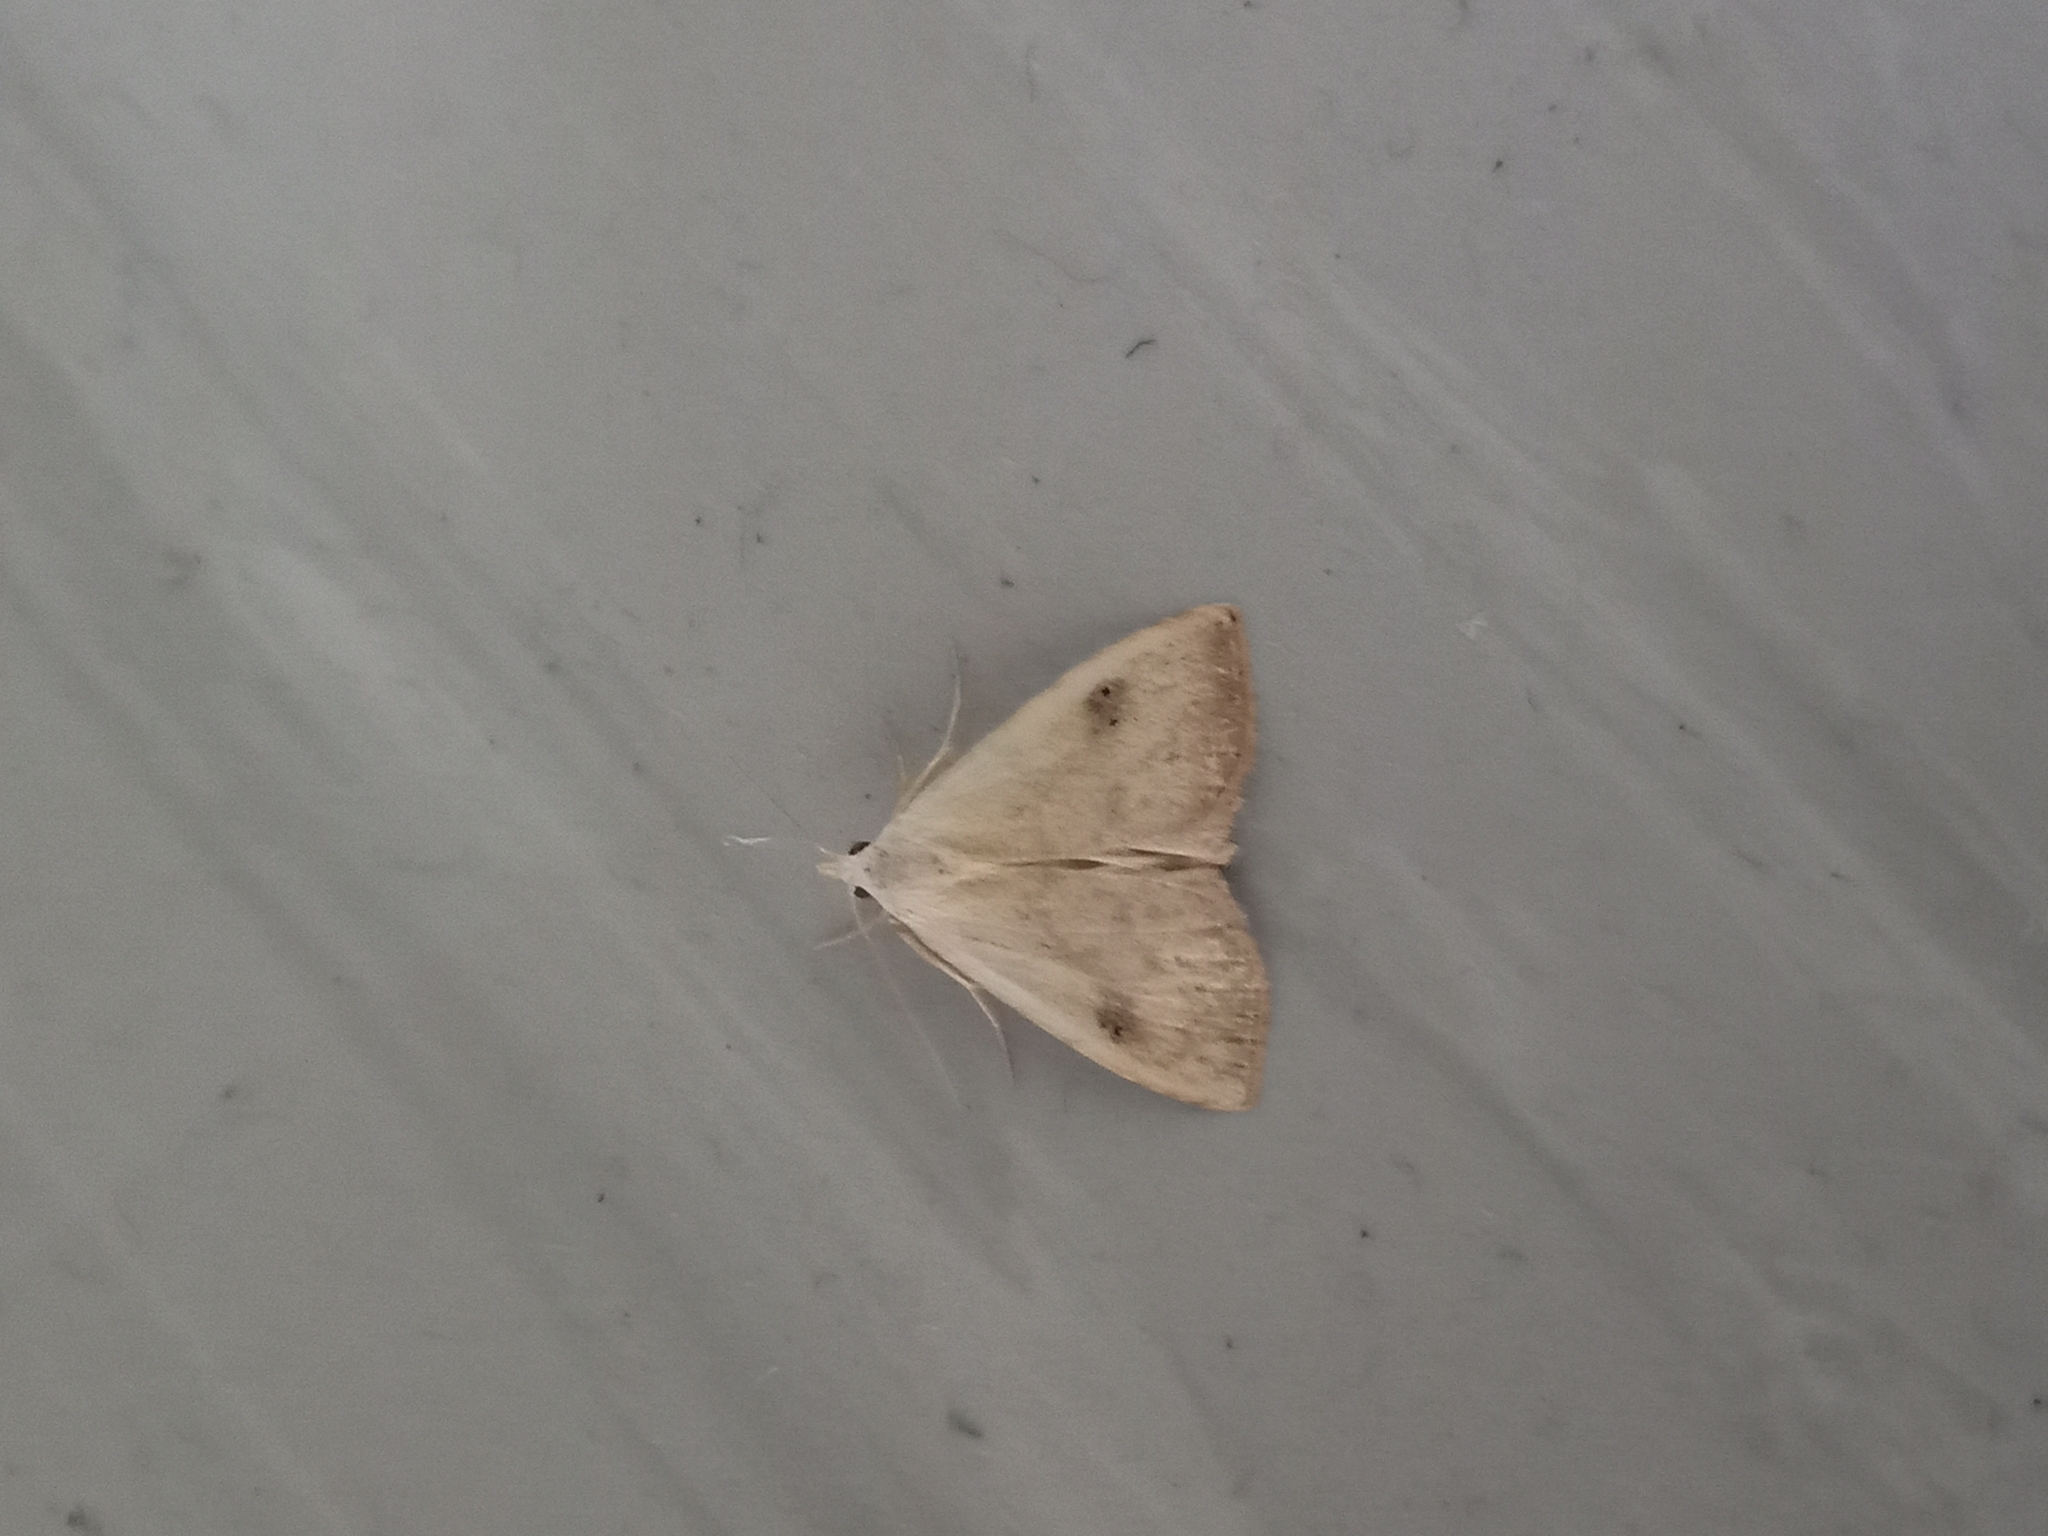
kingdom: Animalia
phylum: Arthropoda
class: Insecta
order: Lepidoptera
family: Erebidae
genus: Rivula
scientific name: Rivula sericealis
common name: Straw dot
